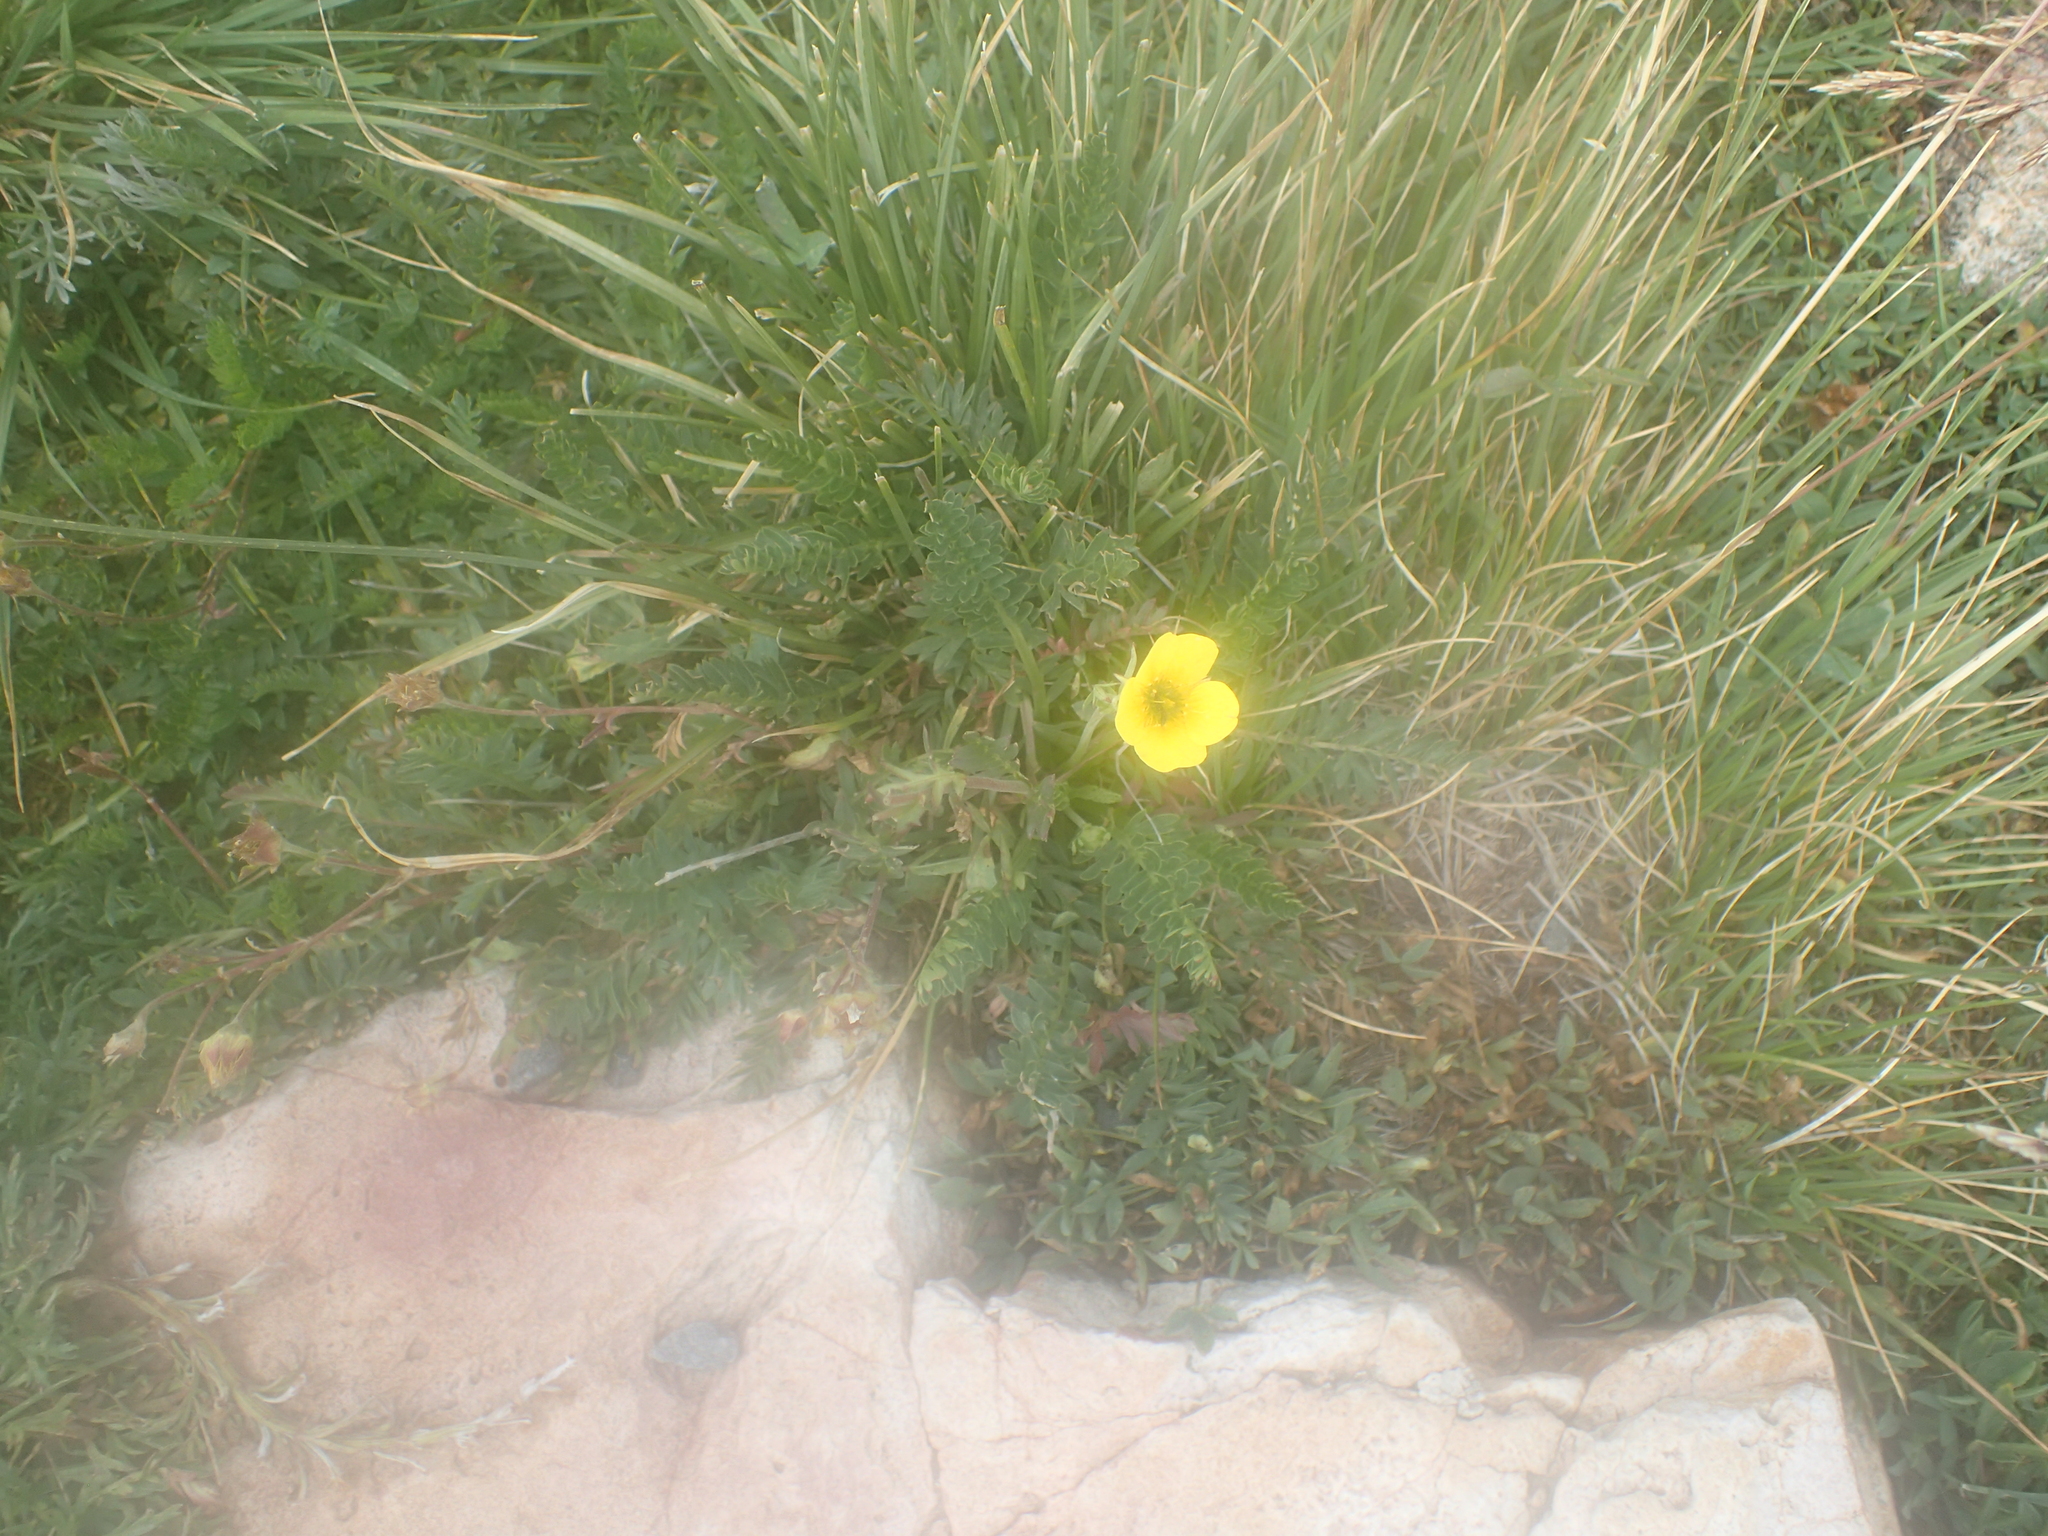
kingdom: Plantae
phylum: Tracheophyta
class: Magnoliopsida
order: Rosales
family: Rosaceae
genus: Geum
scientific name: Geum rossii
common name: Alpine avens
